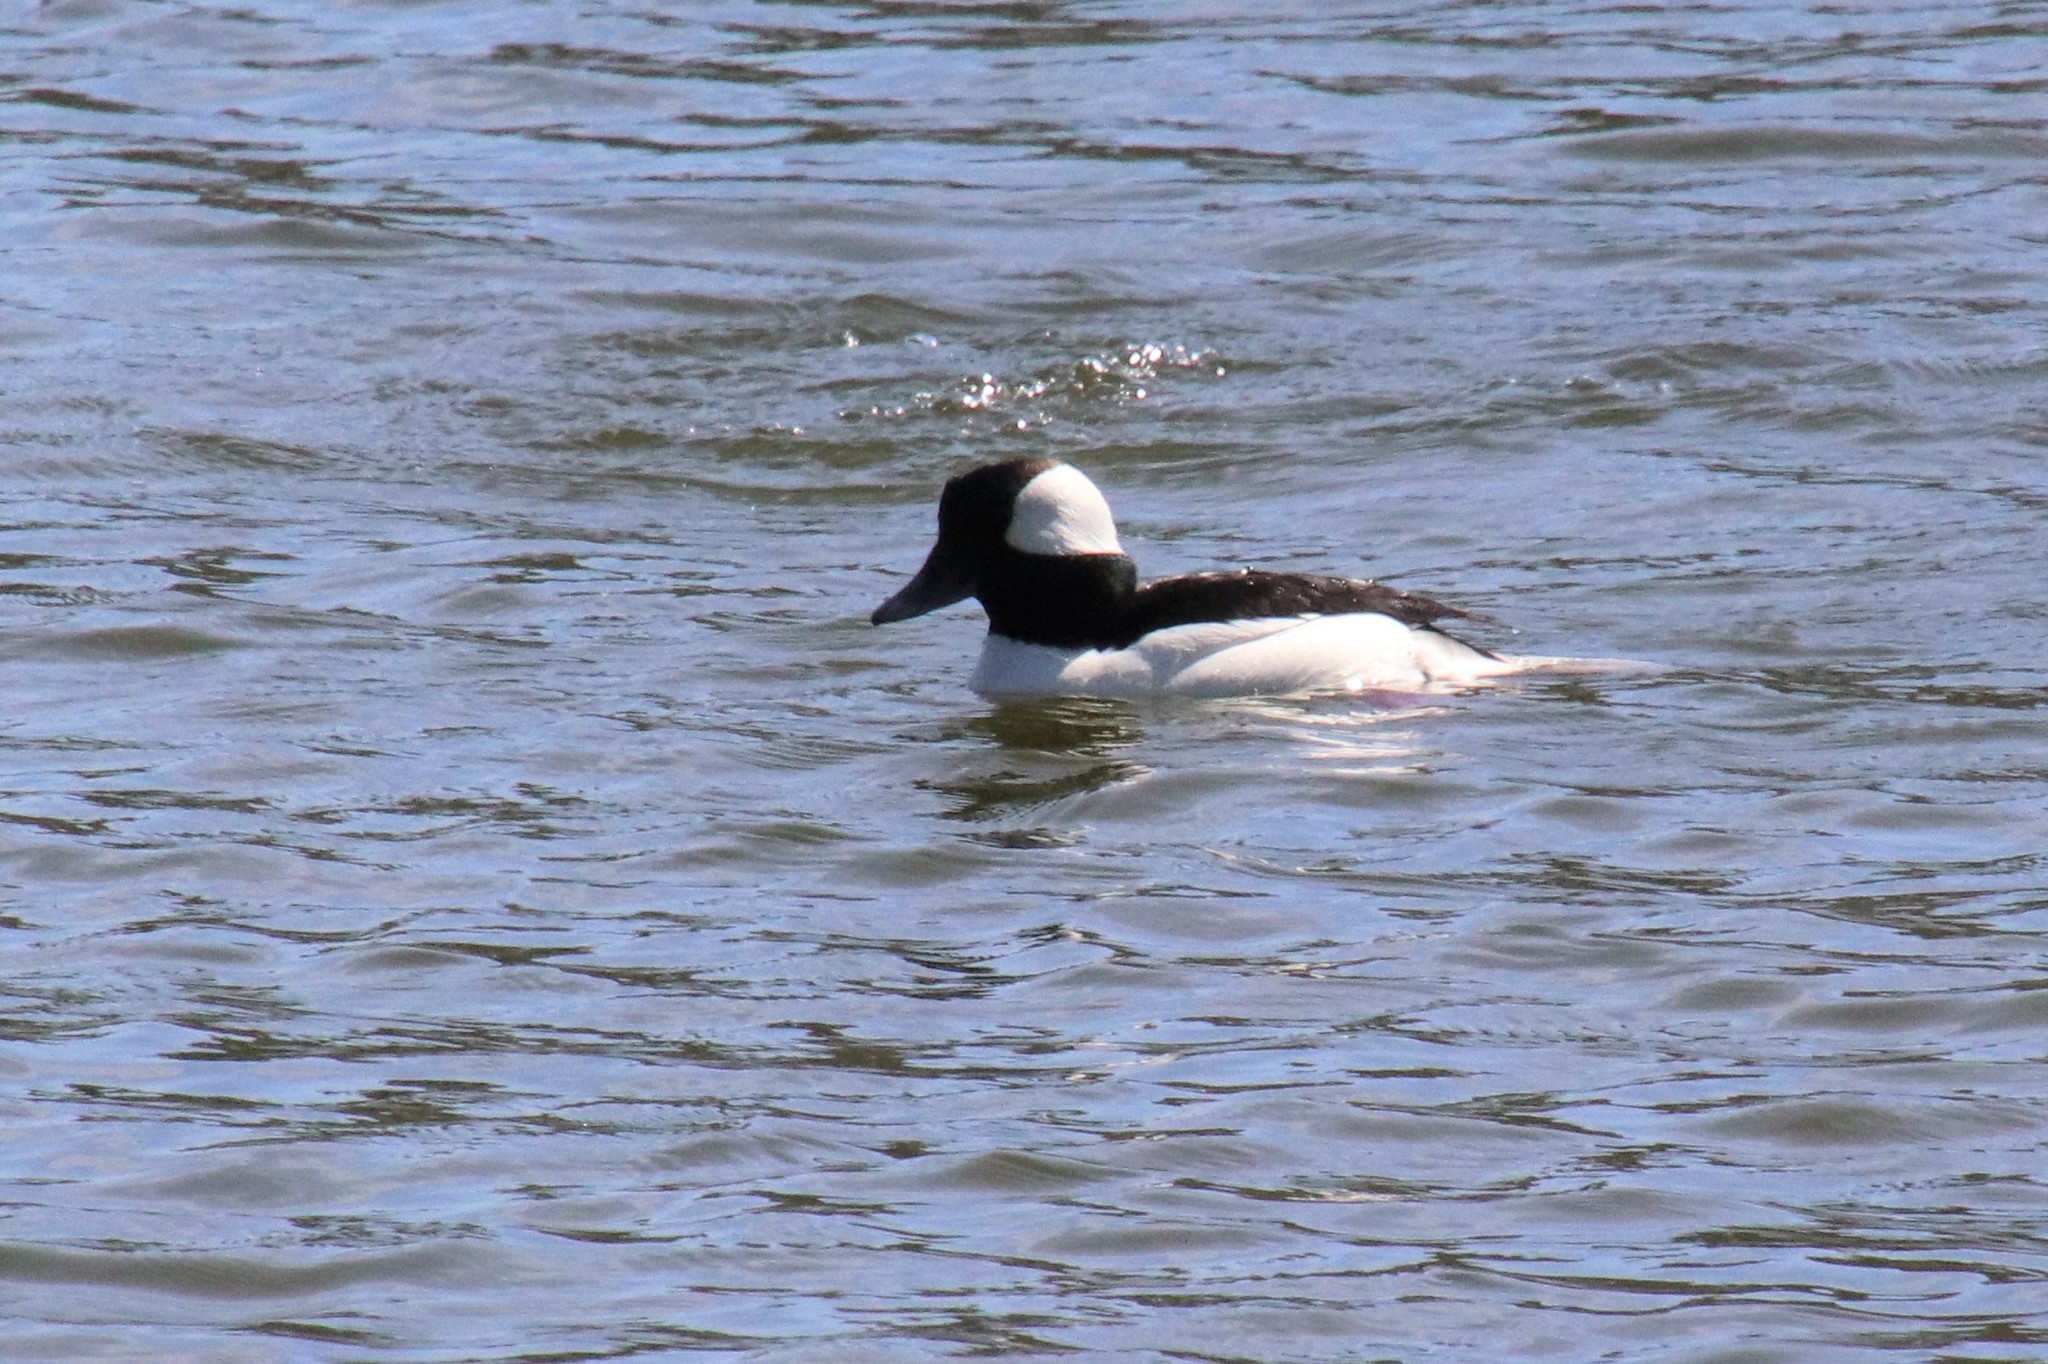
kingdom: Animalia
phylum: Chordata
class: Aves
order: Anseriformes
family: Anatidae
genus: Bucephala
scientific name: Bucephala albeola
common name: Bufflehead
